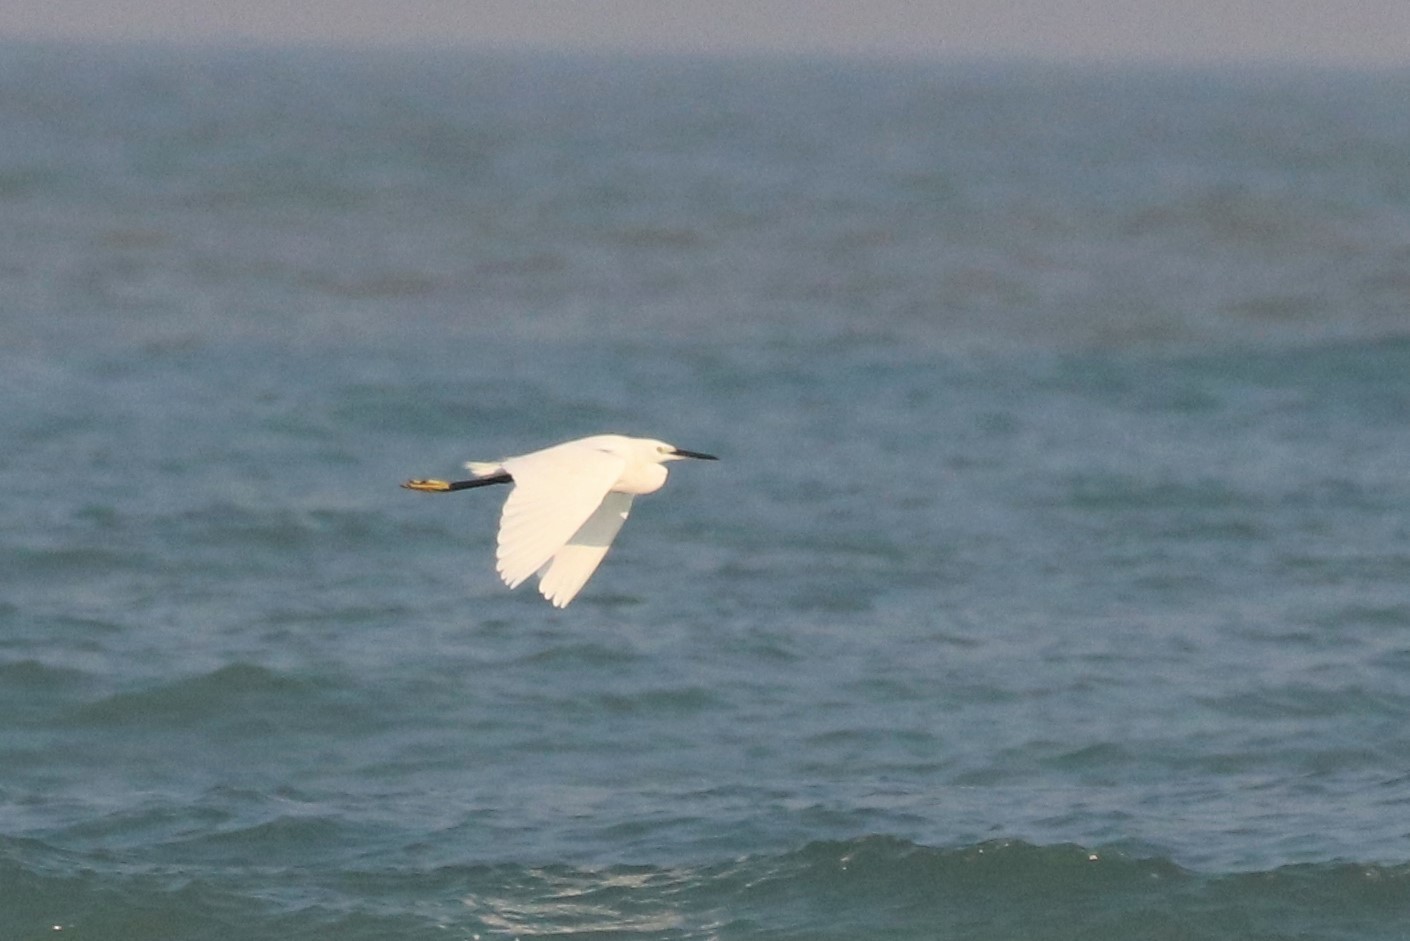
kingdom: Animalia
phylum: Chordata
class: Aves
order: Pelecaniformes
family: Ardeidae
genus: Egretta
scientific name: Egretta garzetta
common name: Little egret
